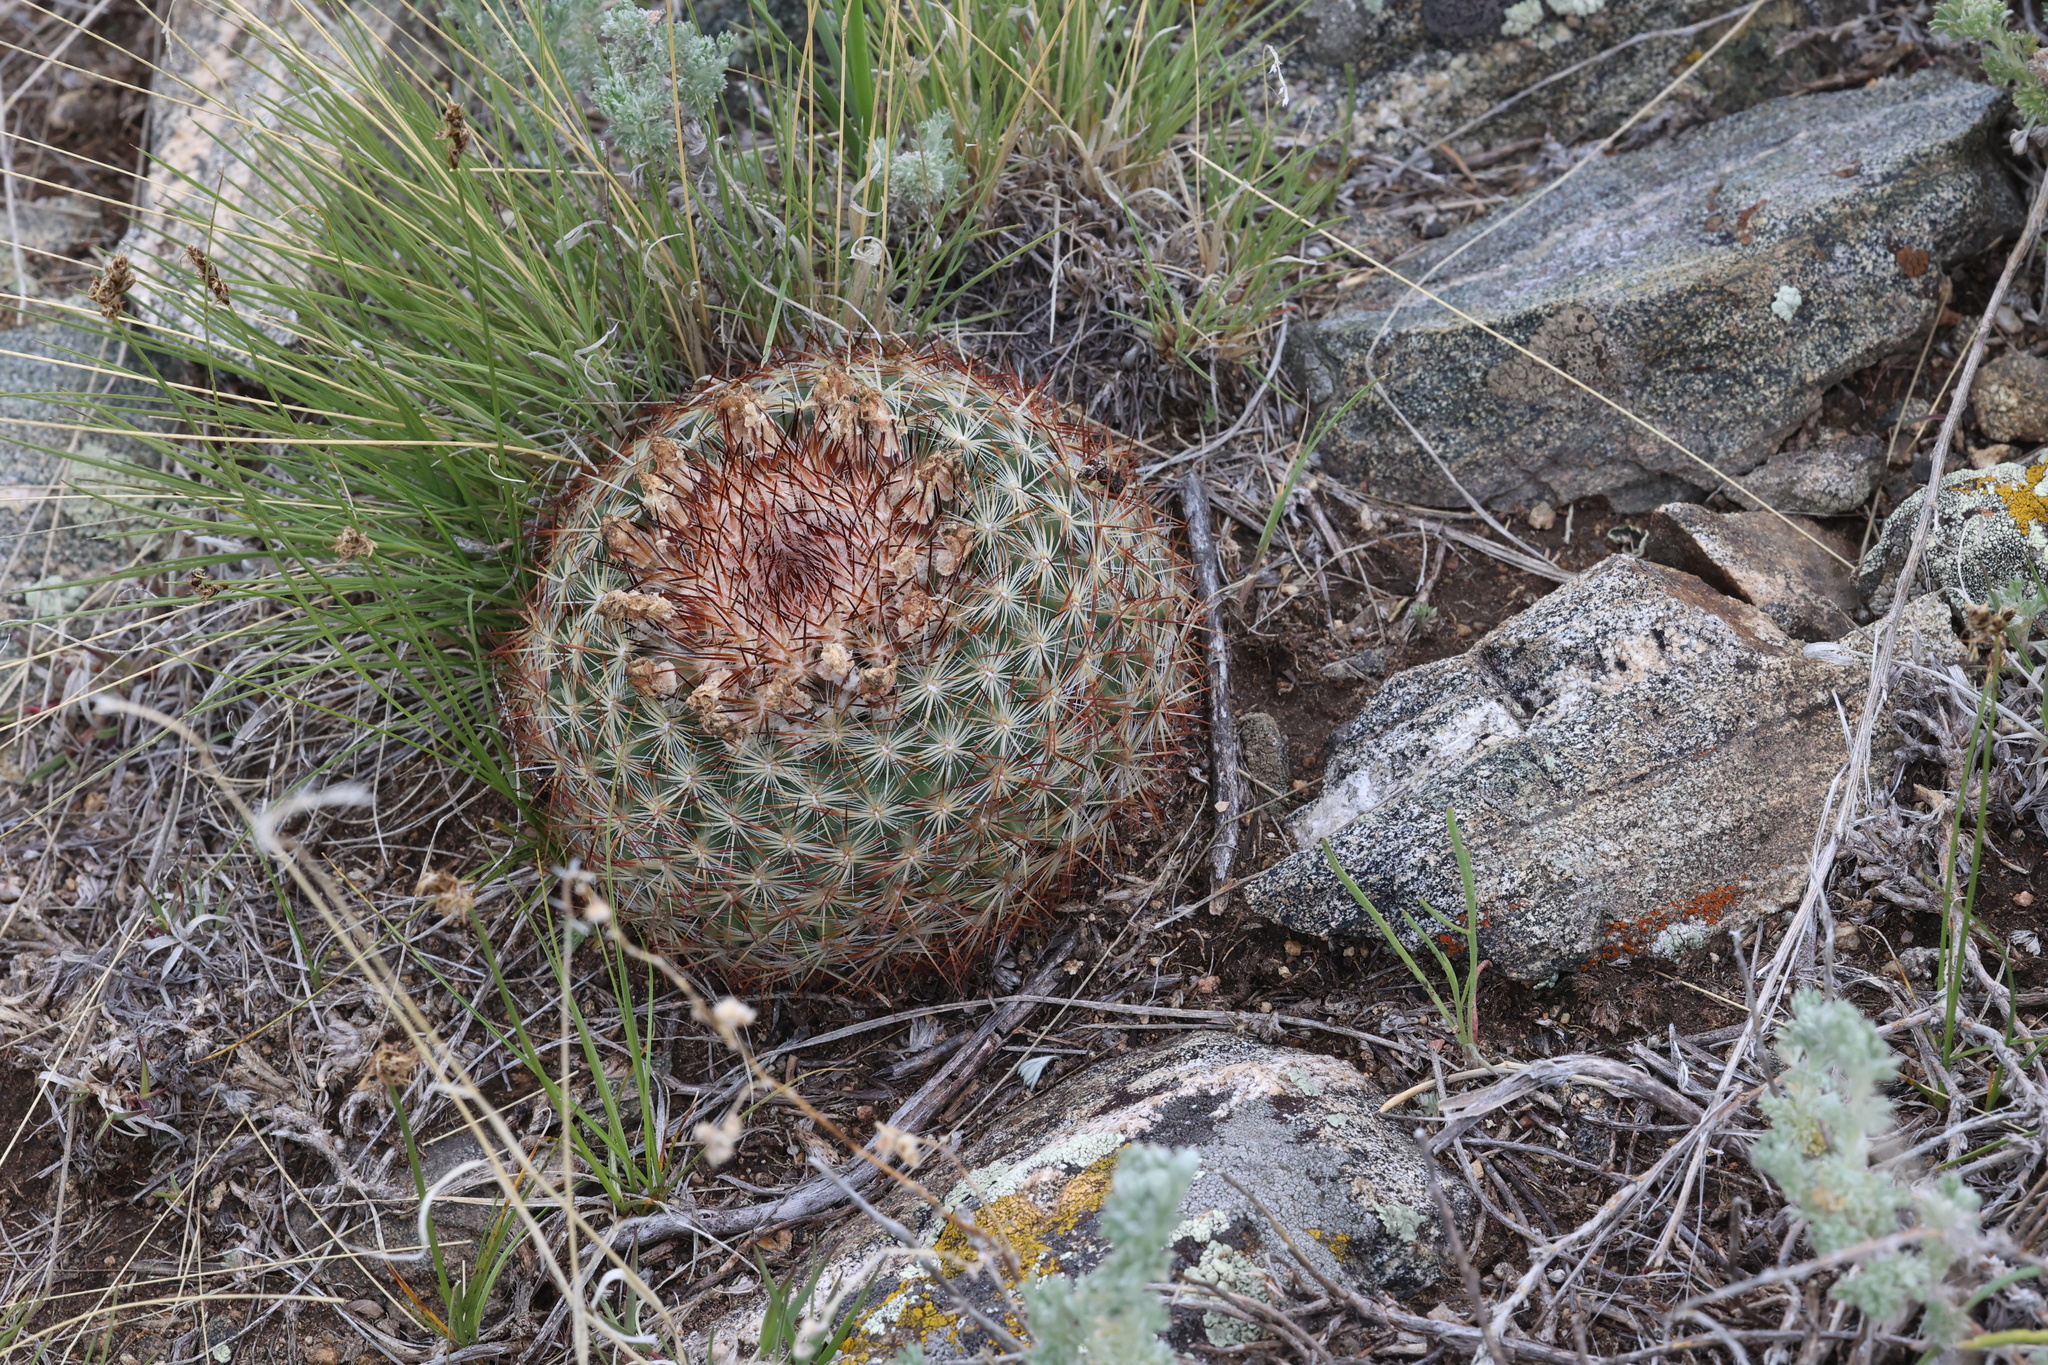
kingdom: Plantae
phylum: Tracheophyta
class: Magnoliopsida
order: Caryophyllales
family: Cactaceae
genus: Pediocactus
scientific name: Pediocactus simpsonii
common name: Simpson's hedgehog cactus
